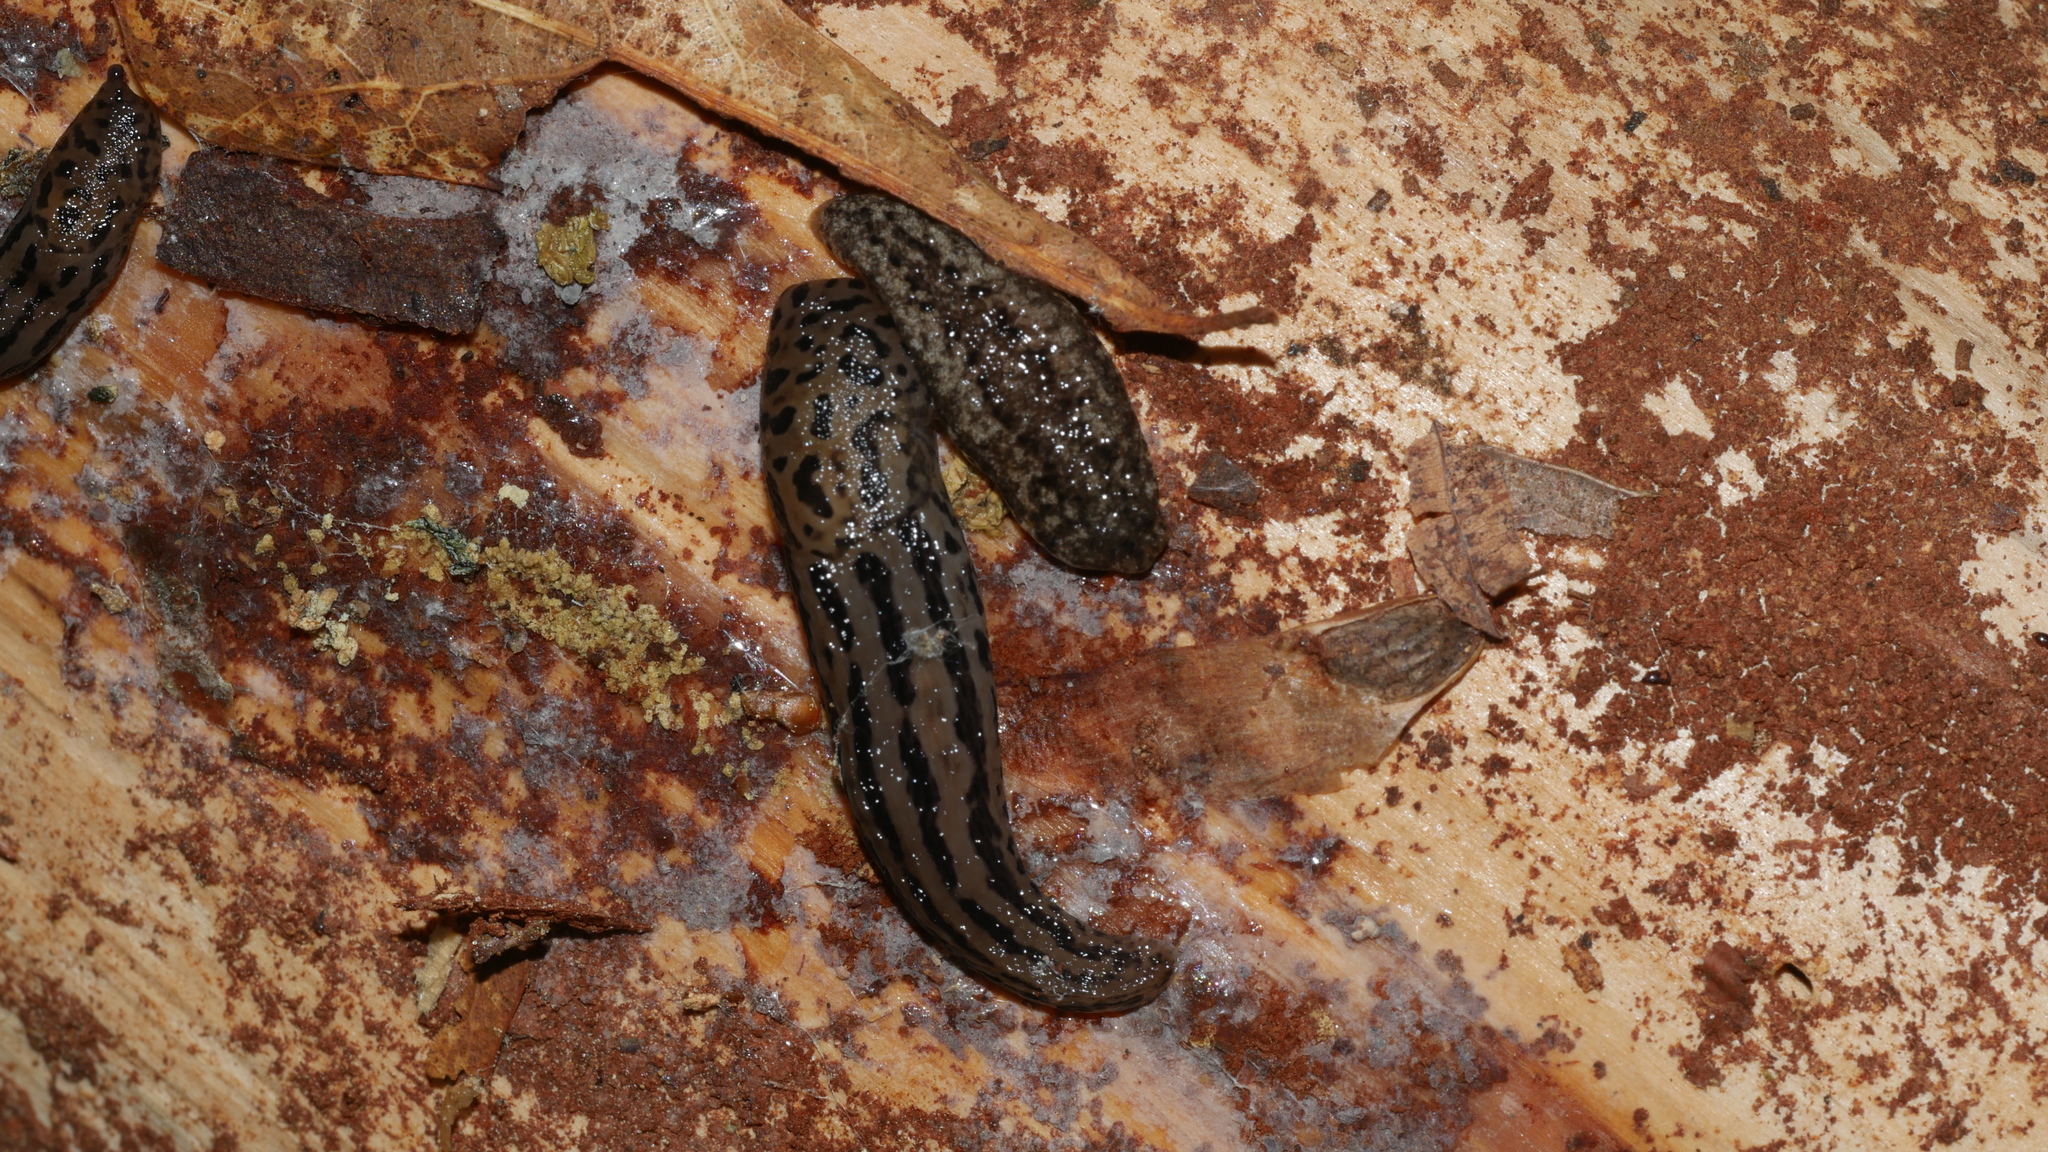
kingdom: Animalia
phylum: Mollusca
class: Gastropoda
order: Stylommatophora
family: Limacidae
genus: Limax
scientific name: Limax maximus
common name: Great grey slug
